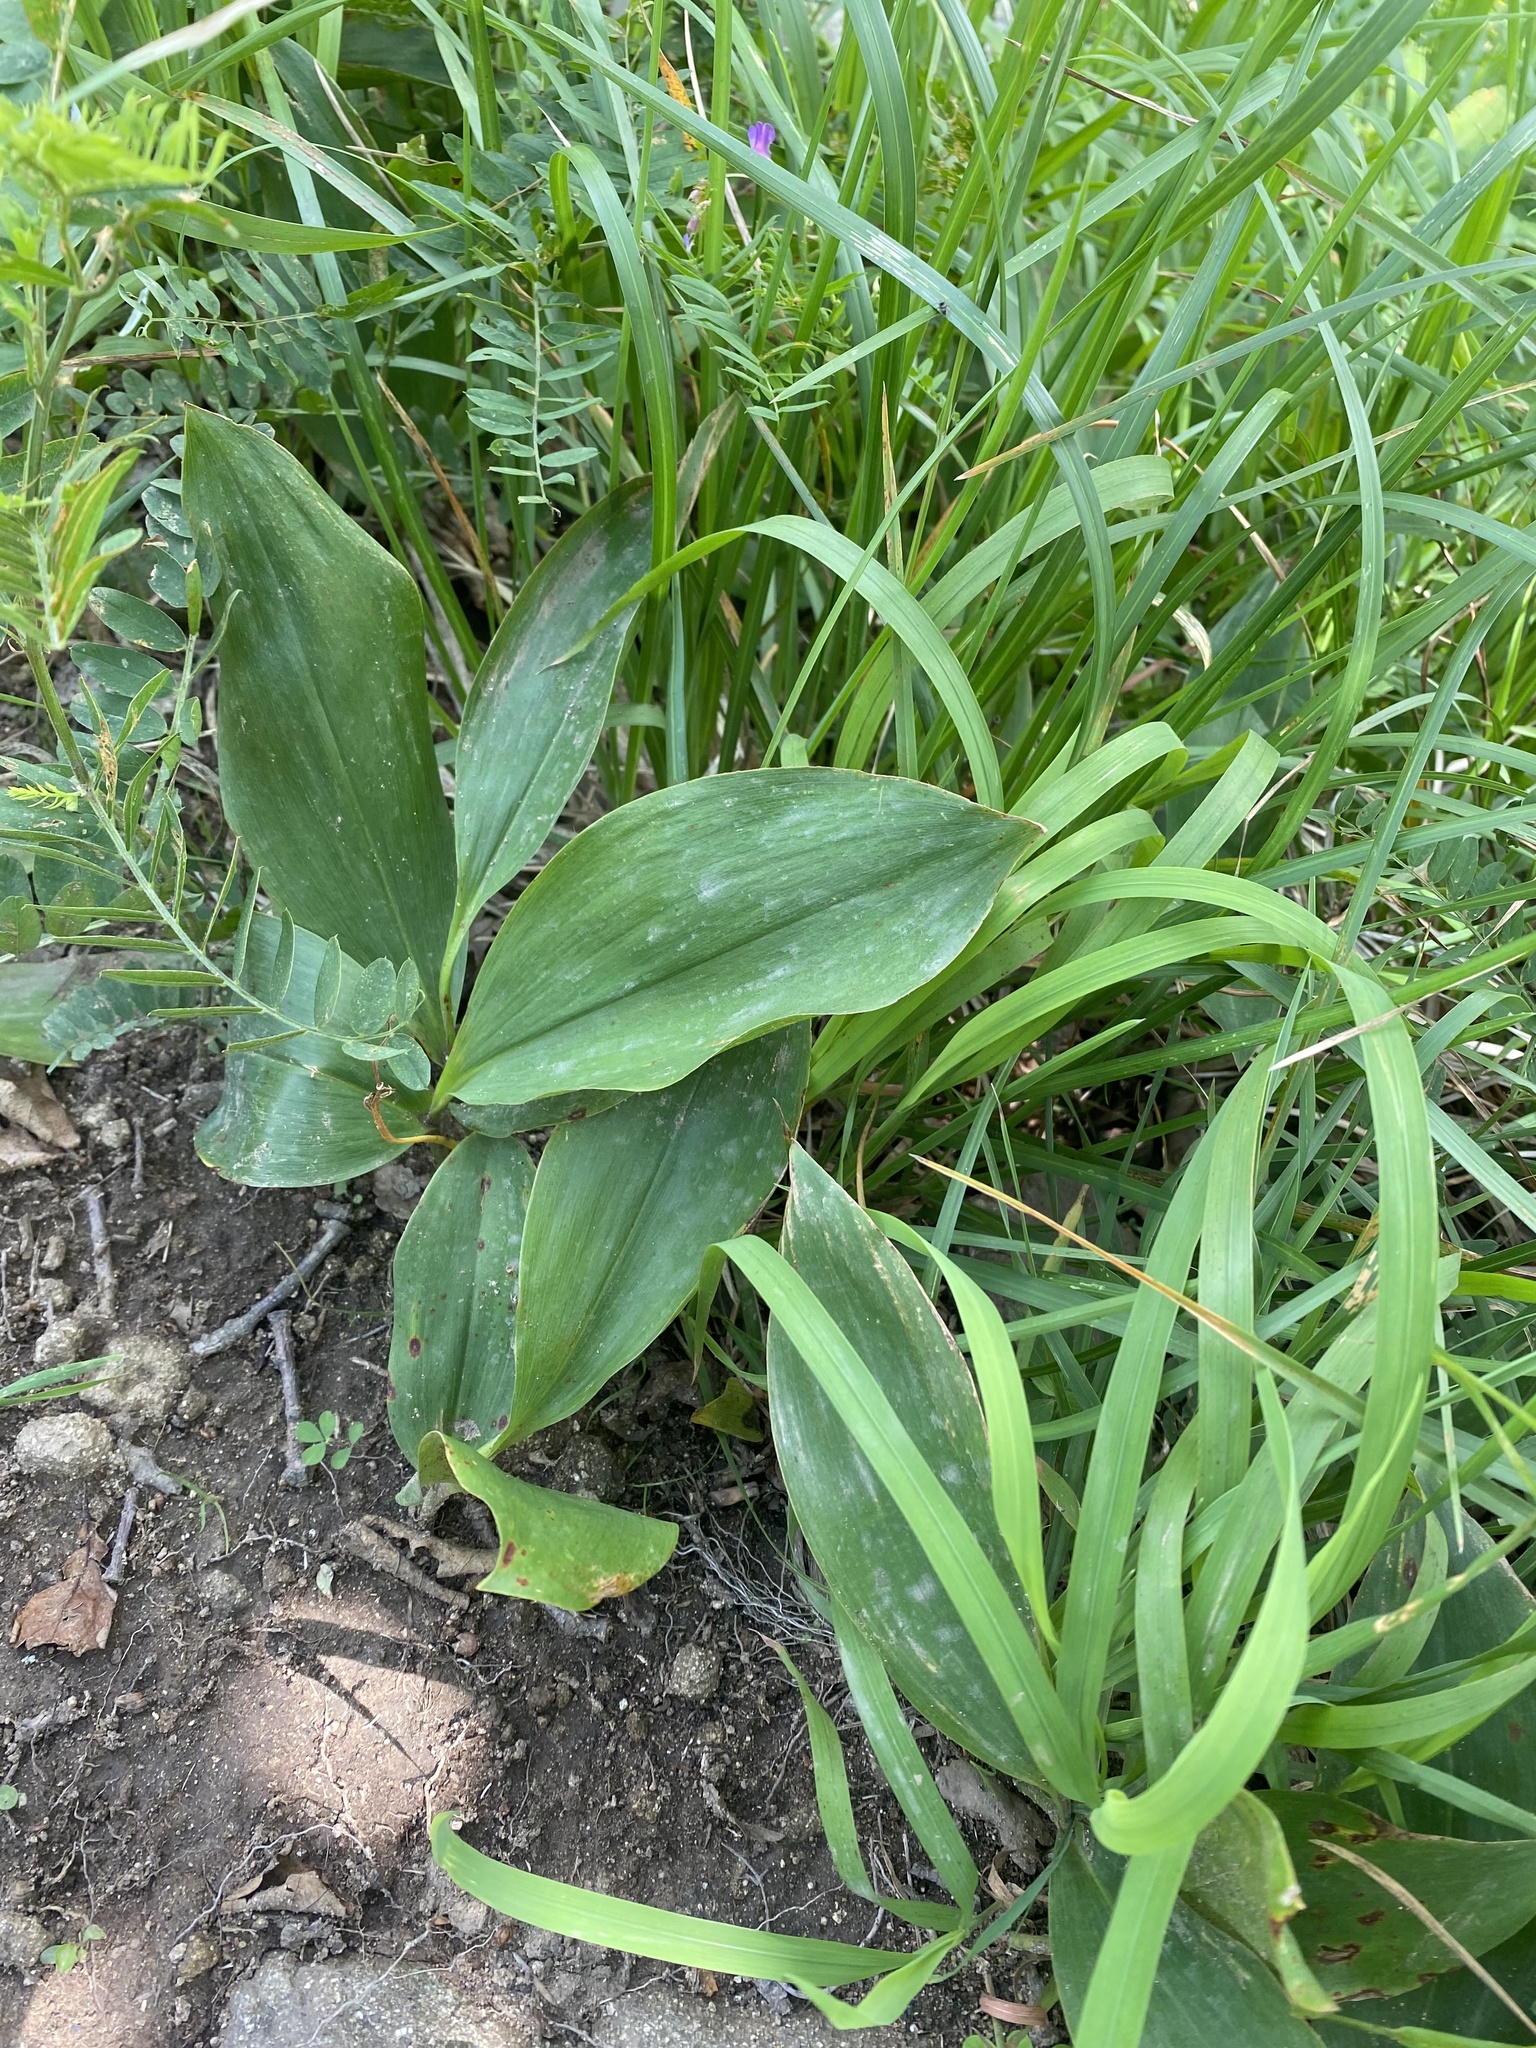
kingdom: Plantae
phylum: Tracheophyta
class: Liliopsida
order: Asparagales
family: Asparagaceae
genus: Convallaria
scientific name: Convallaria majalis
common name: Lily-of-the-valley
